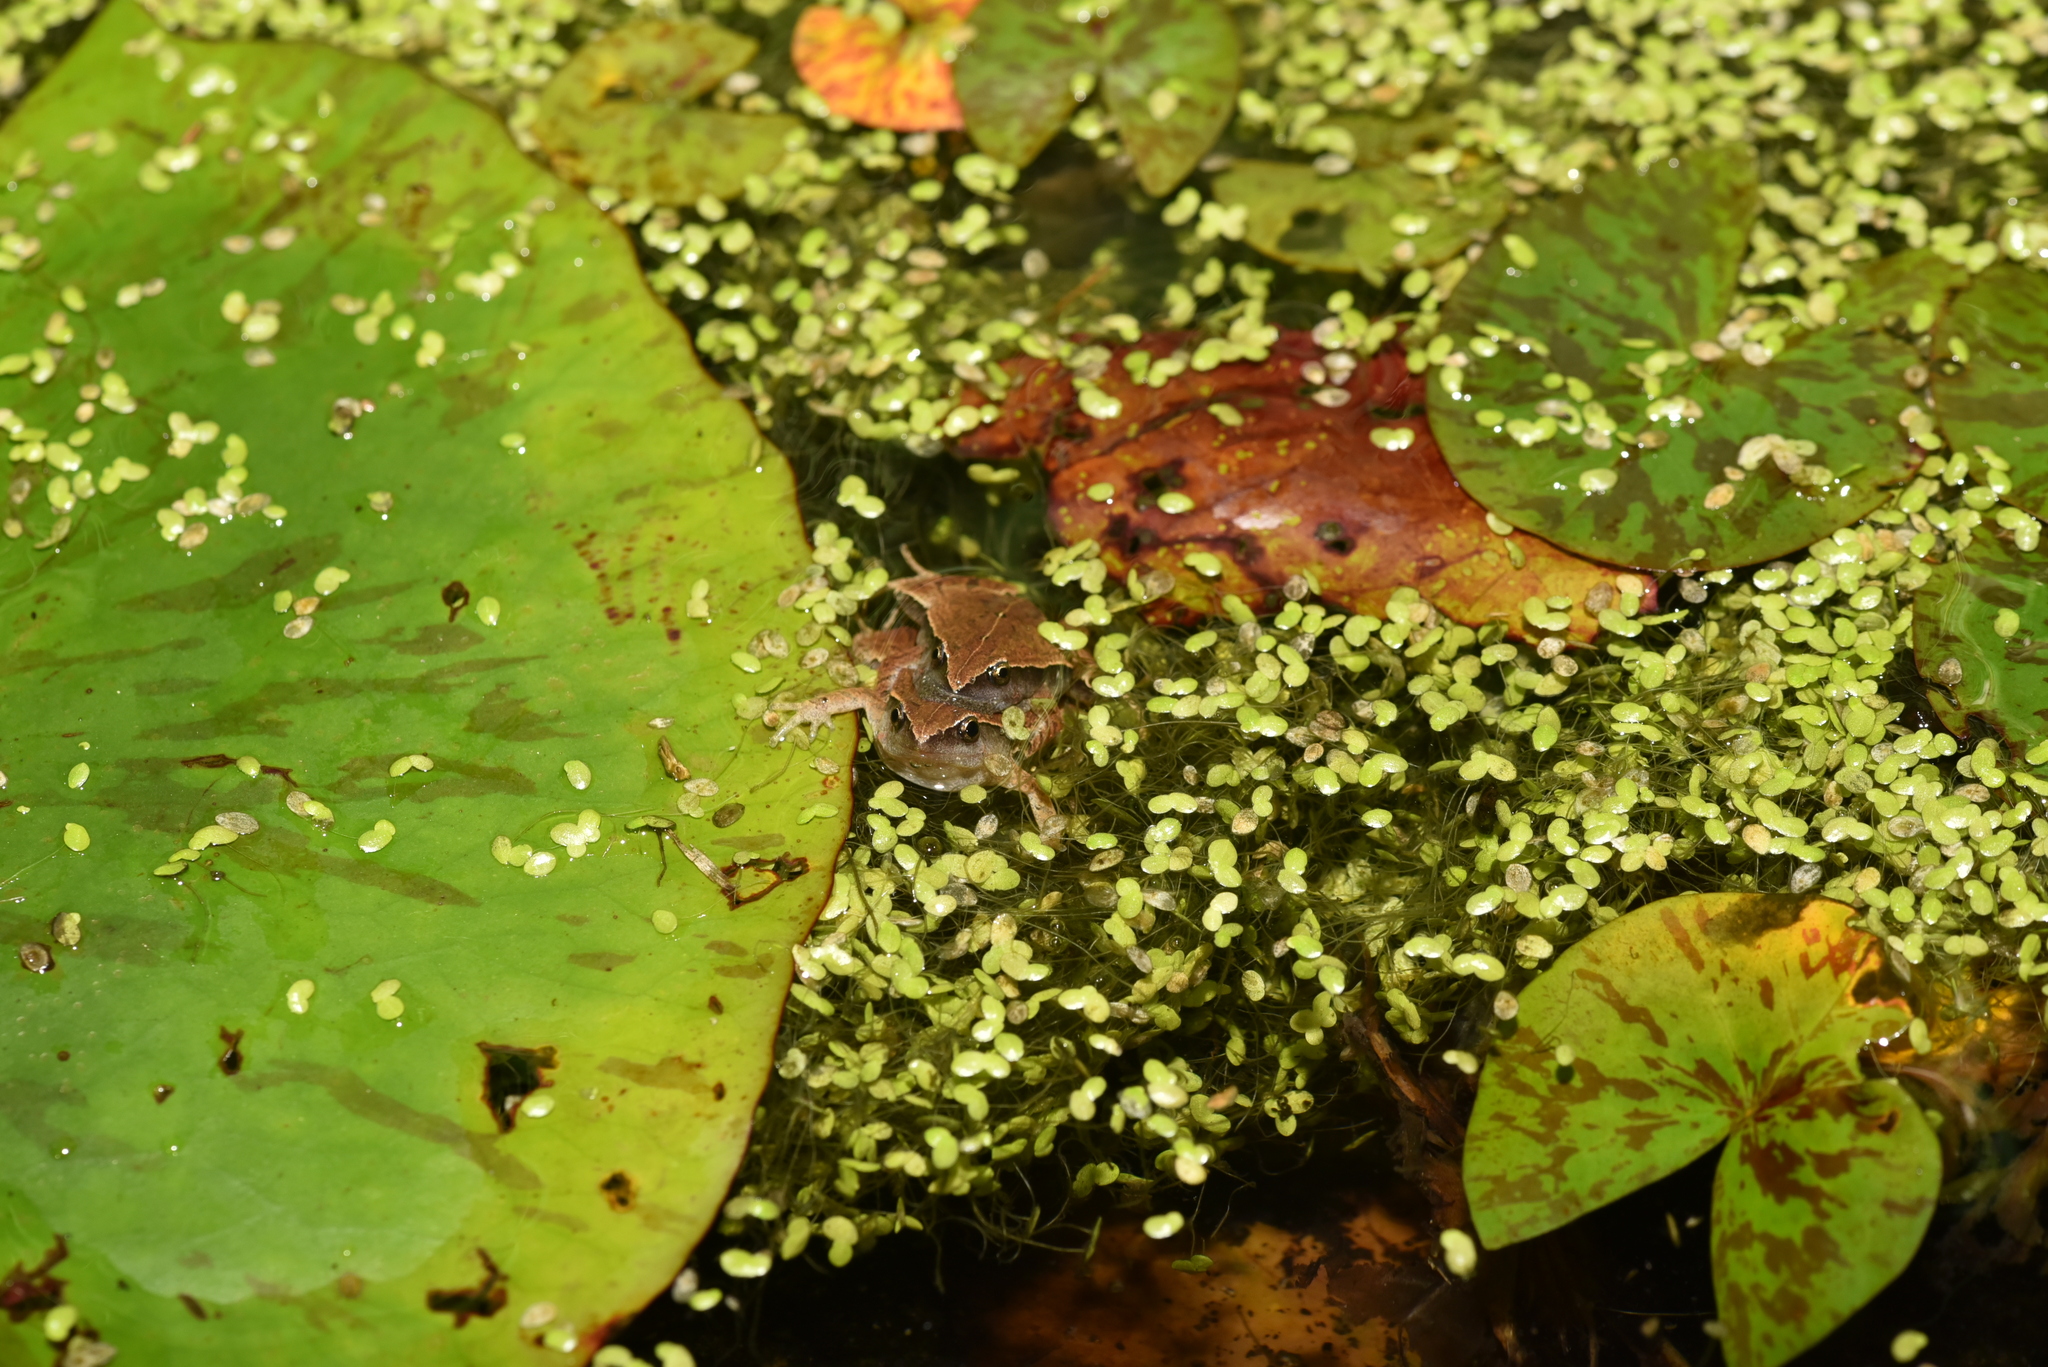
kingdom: Animalia
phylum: Chordata
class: Amphibia
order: Anura
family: Microhylidae
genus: Microhyla
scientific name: Microhyla heymonsi
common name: Taiwan rice frog,dark sided chorus frog
